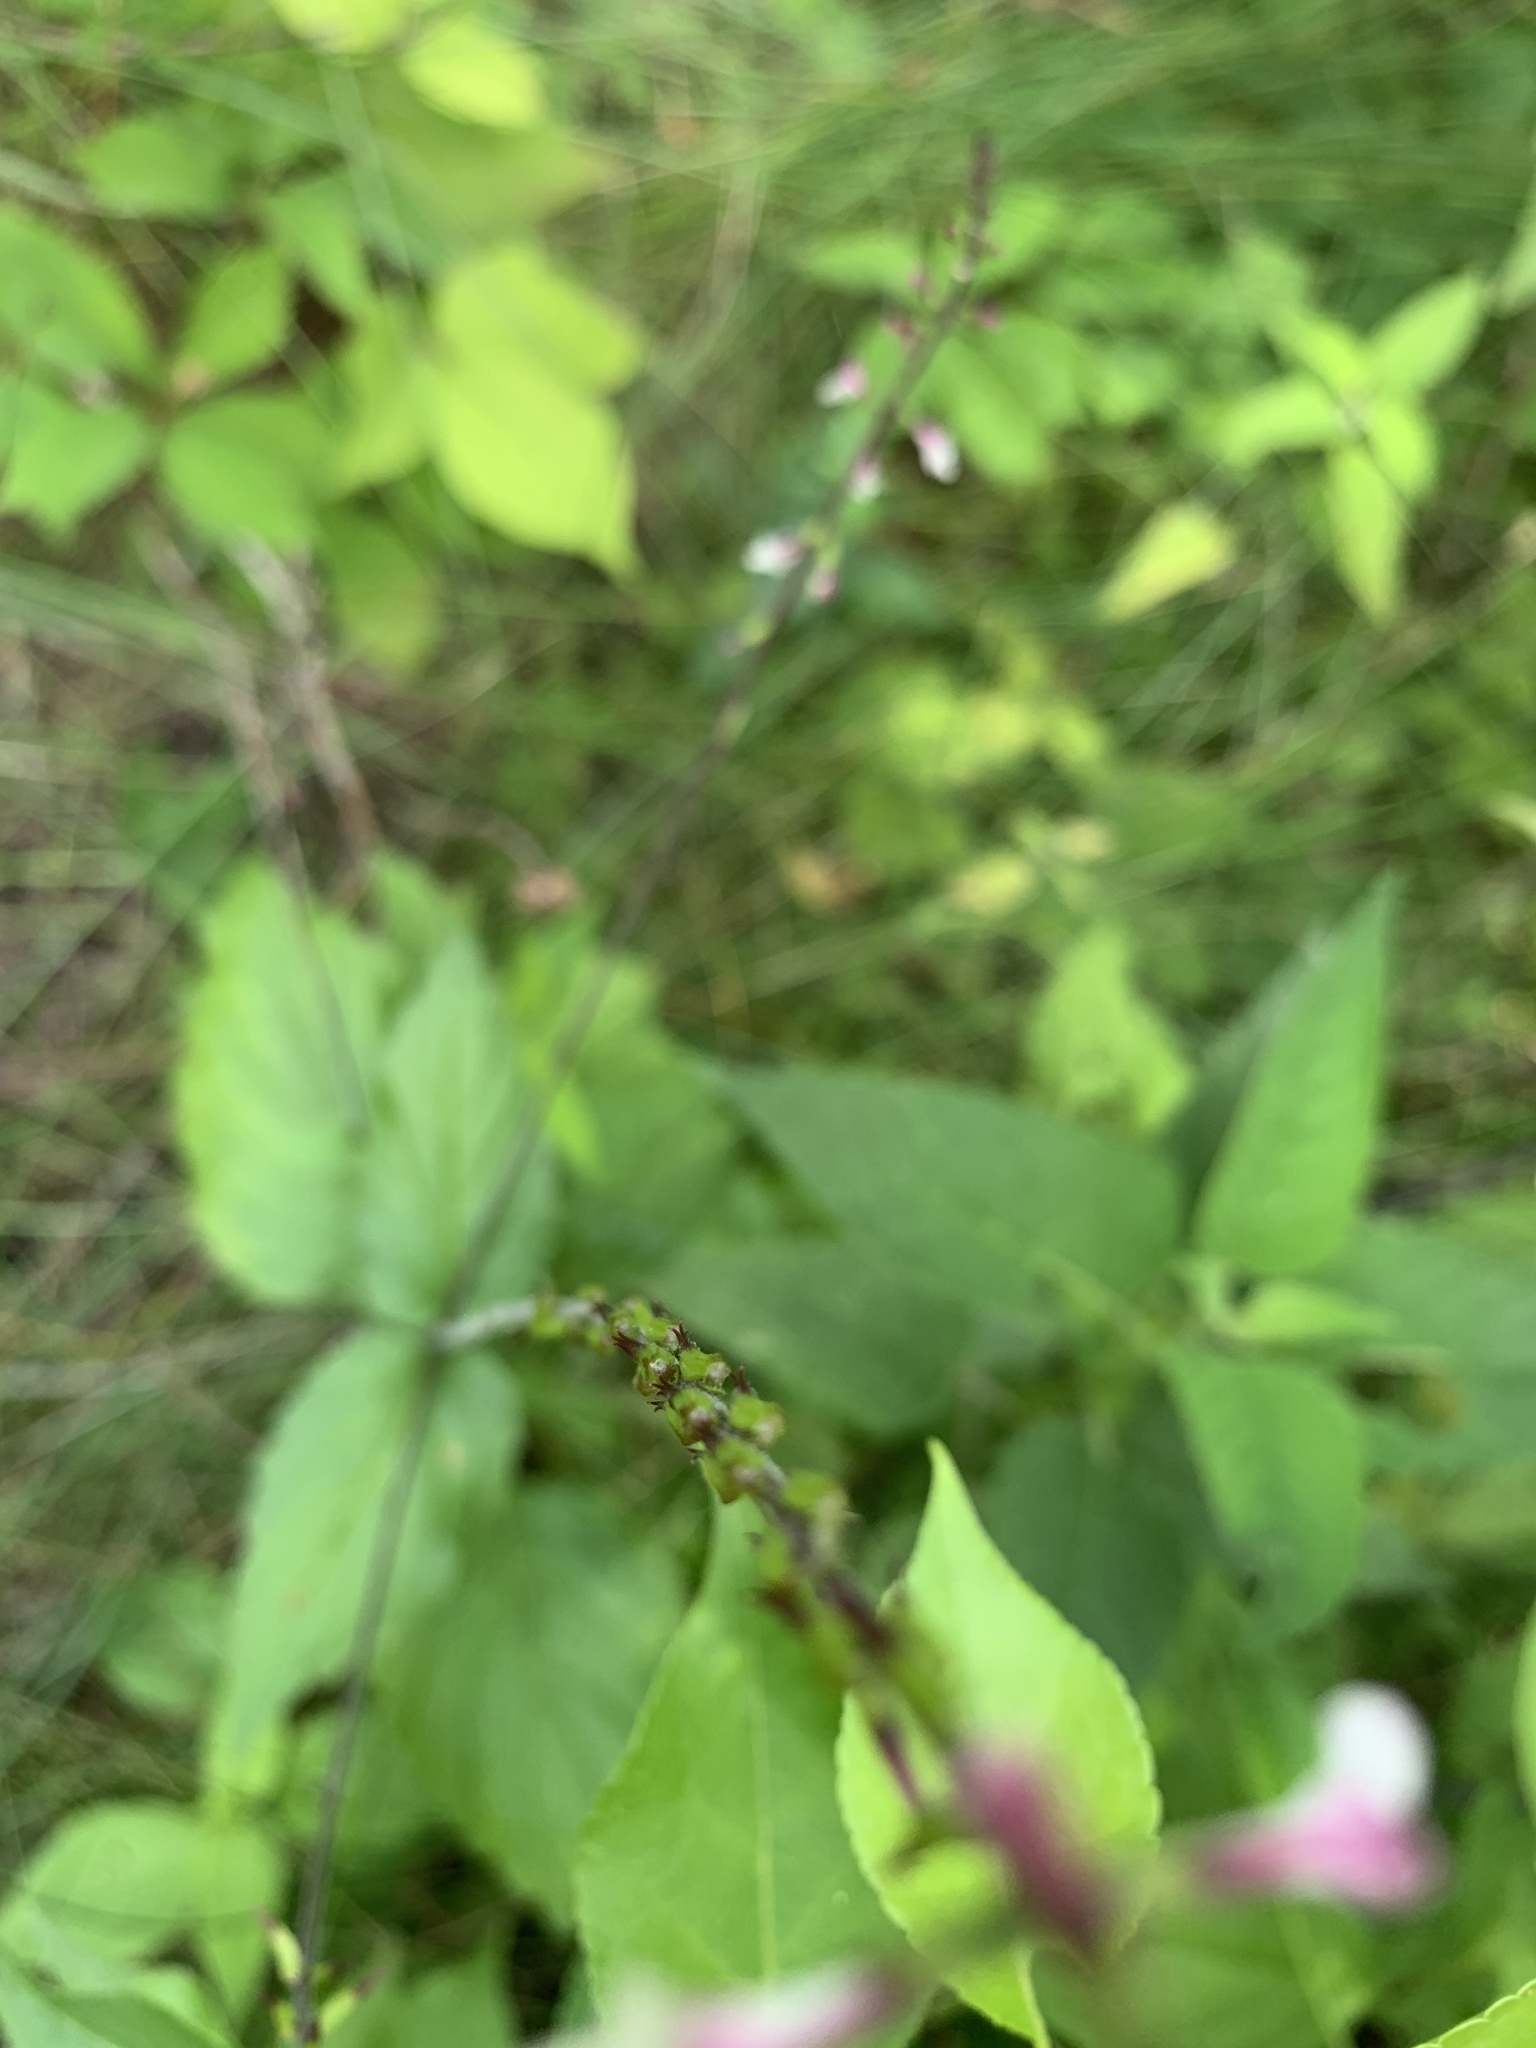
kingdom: Plantae
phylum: Tracheophyta
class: Magnoliopsida
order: Lamiales
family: Phrymaceae
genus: Phryma
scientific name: Phryma leptostachya
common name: American lopseed
